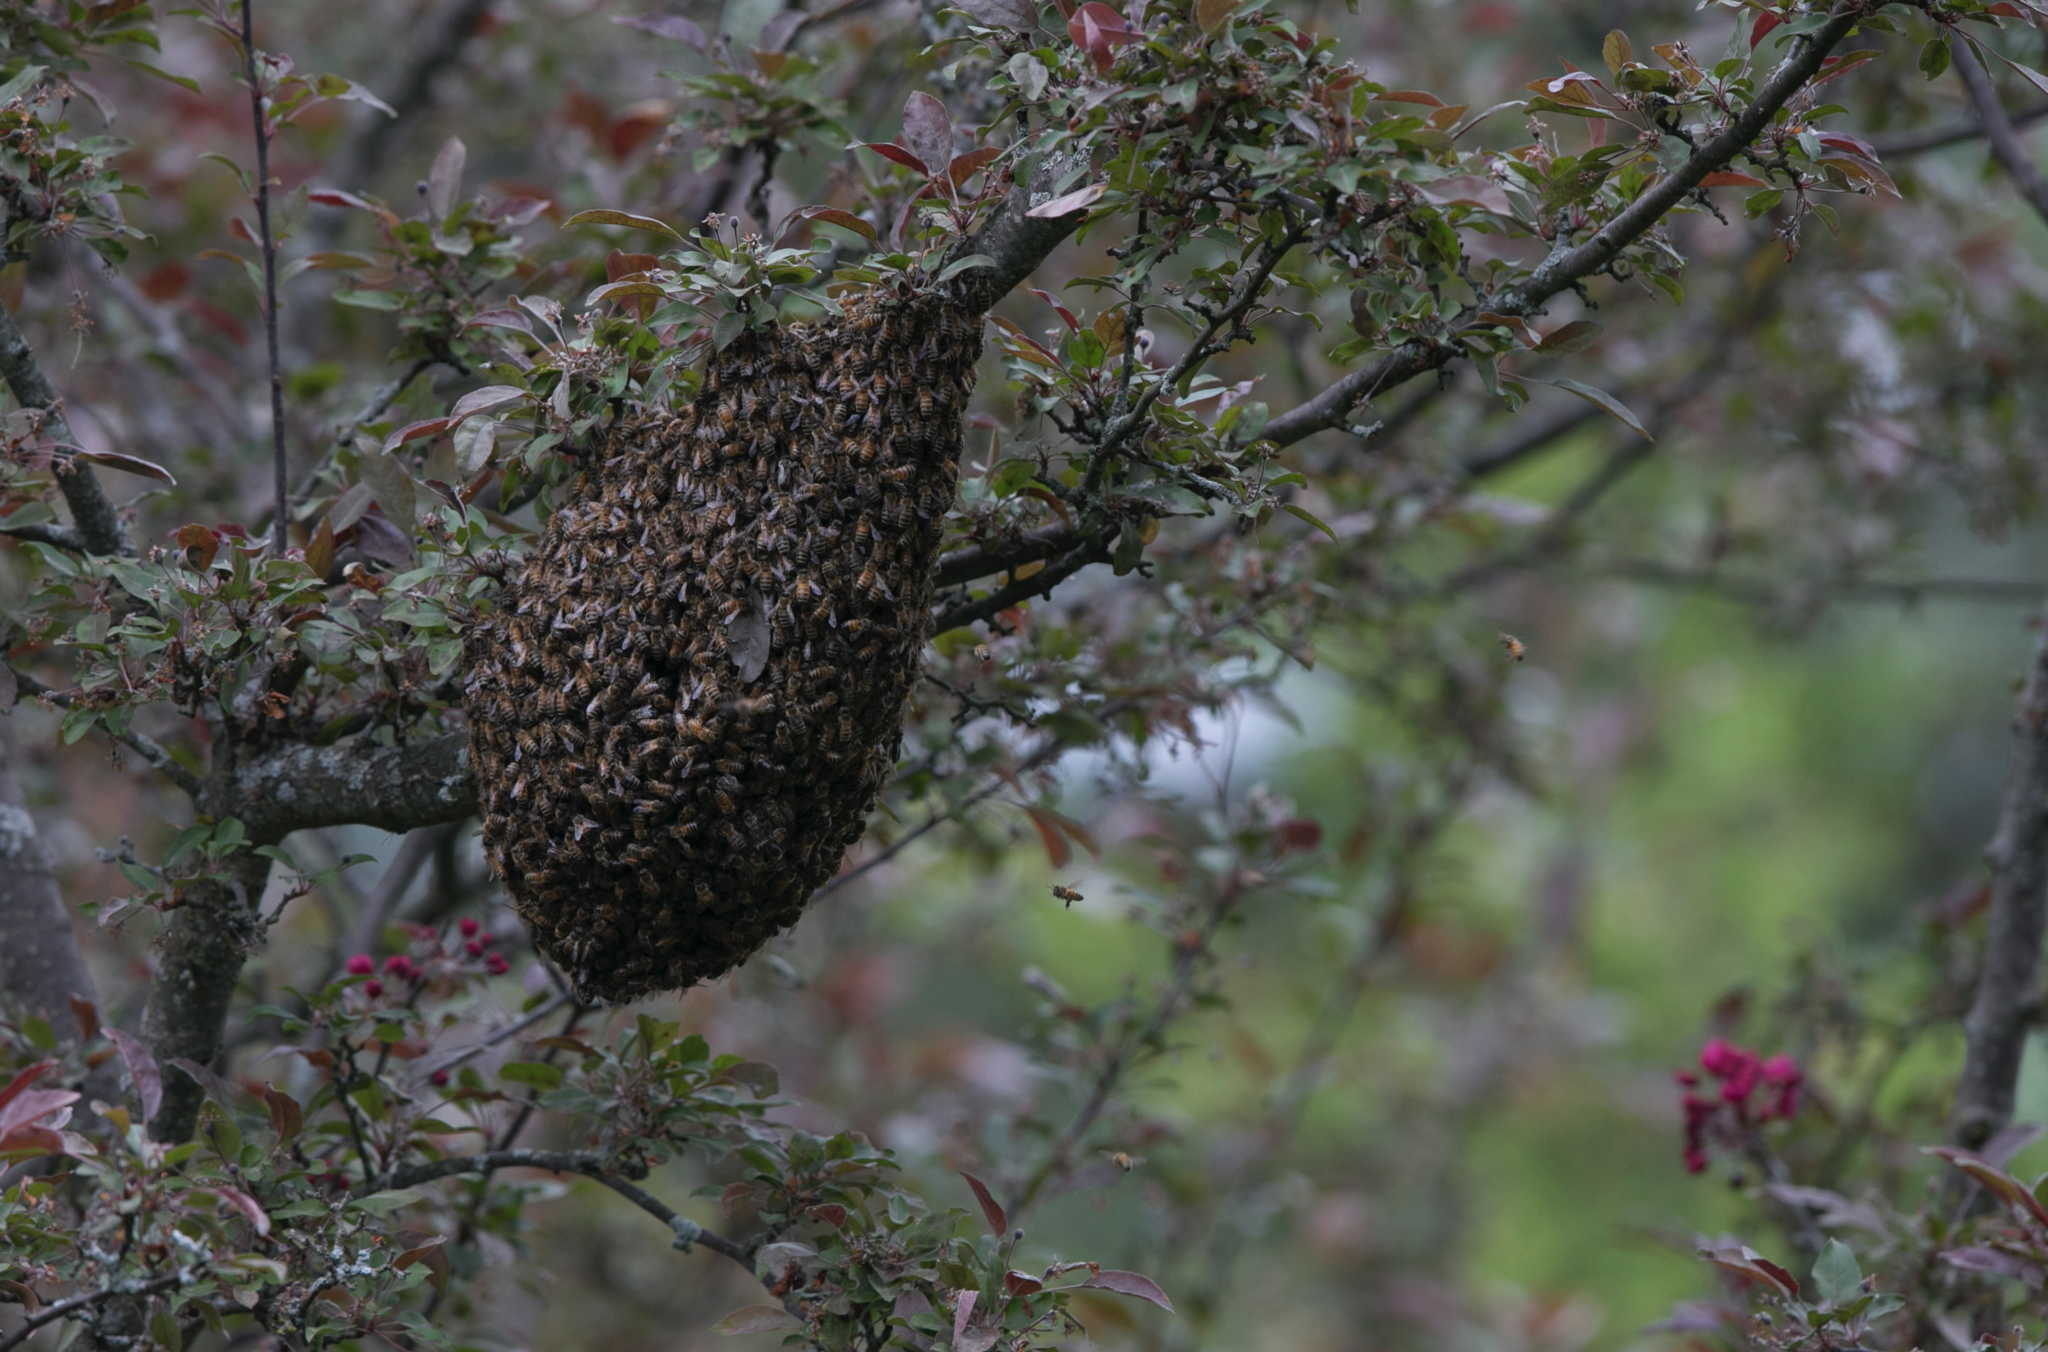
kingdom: Animalia
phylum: Arthropoda
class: Insecta
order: Hymenoptera
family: Apidae
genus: Apis
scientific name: Apis mellifera
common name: Honey bee
